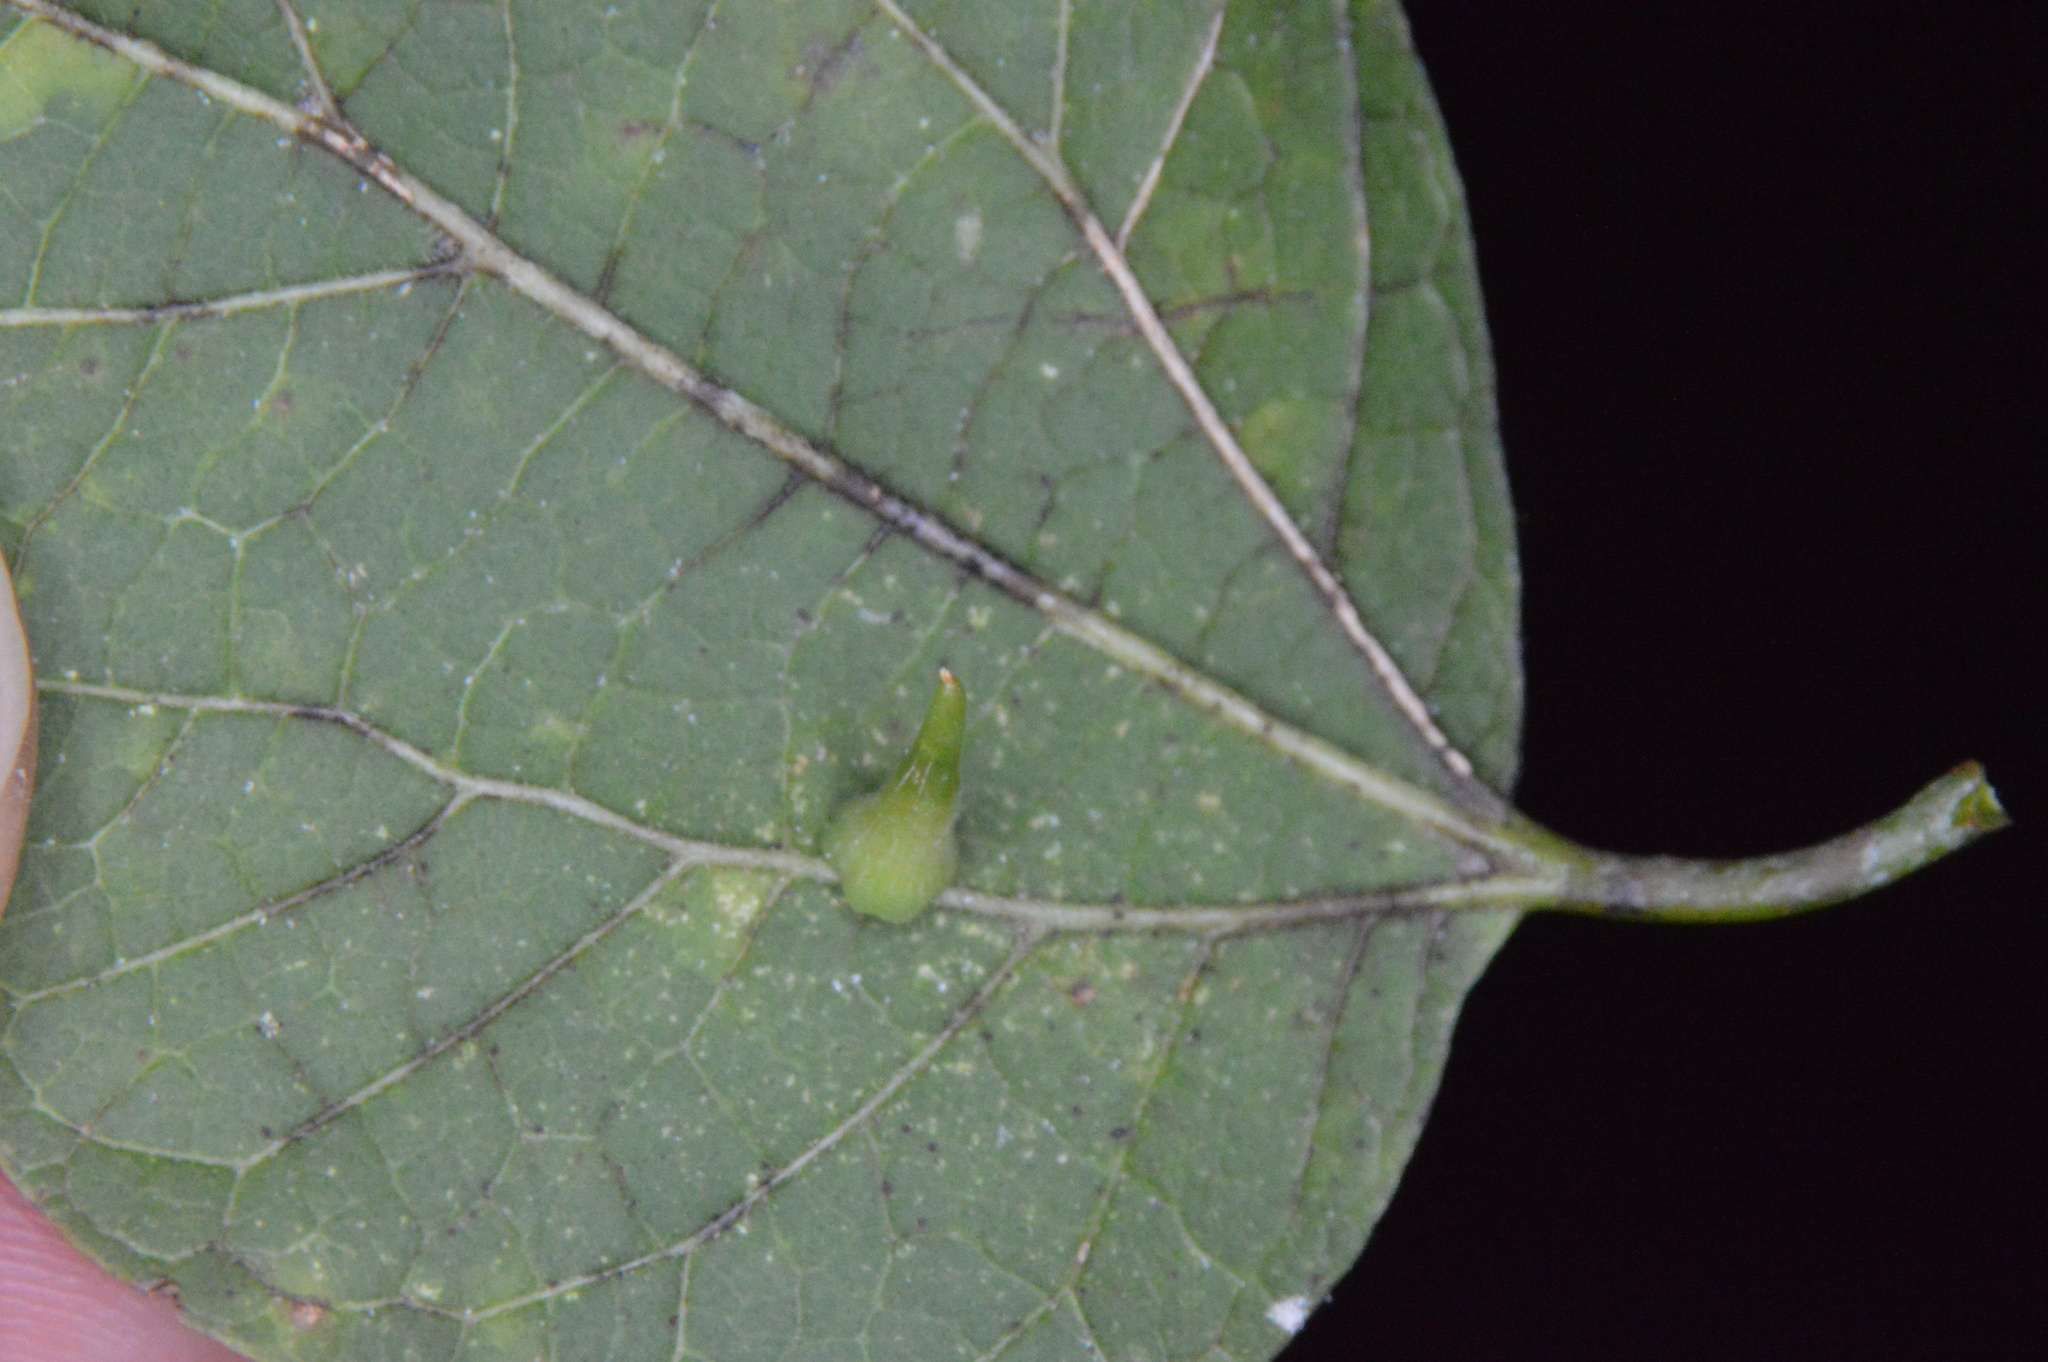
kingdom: Animalia
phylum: Arthropoda
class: Insecta
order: Diptera
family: Cecidomyiidae
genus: Celticecis
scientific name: Celticecis subulata
